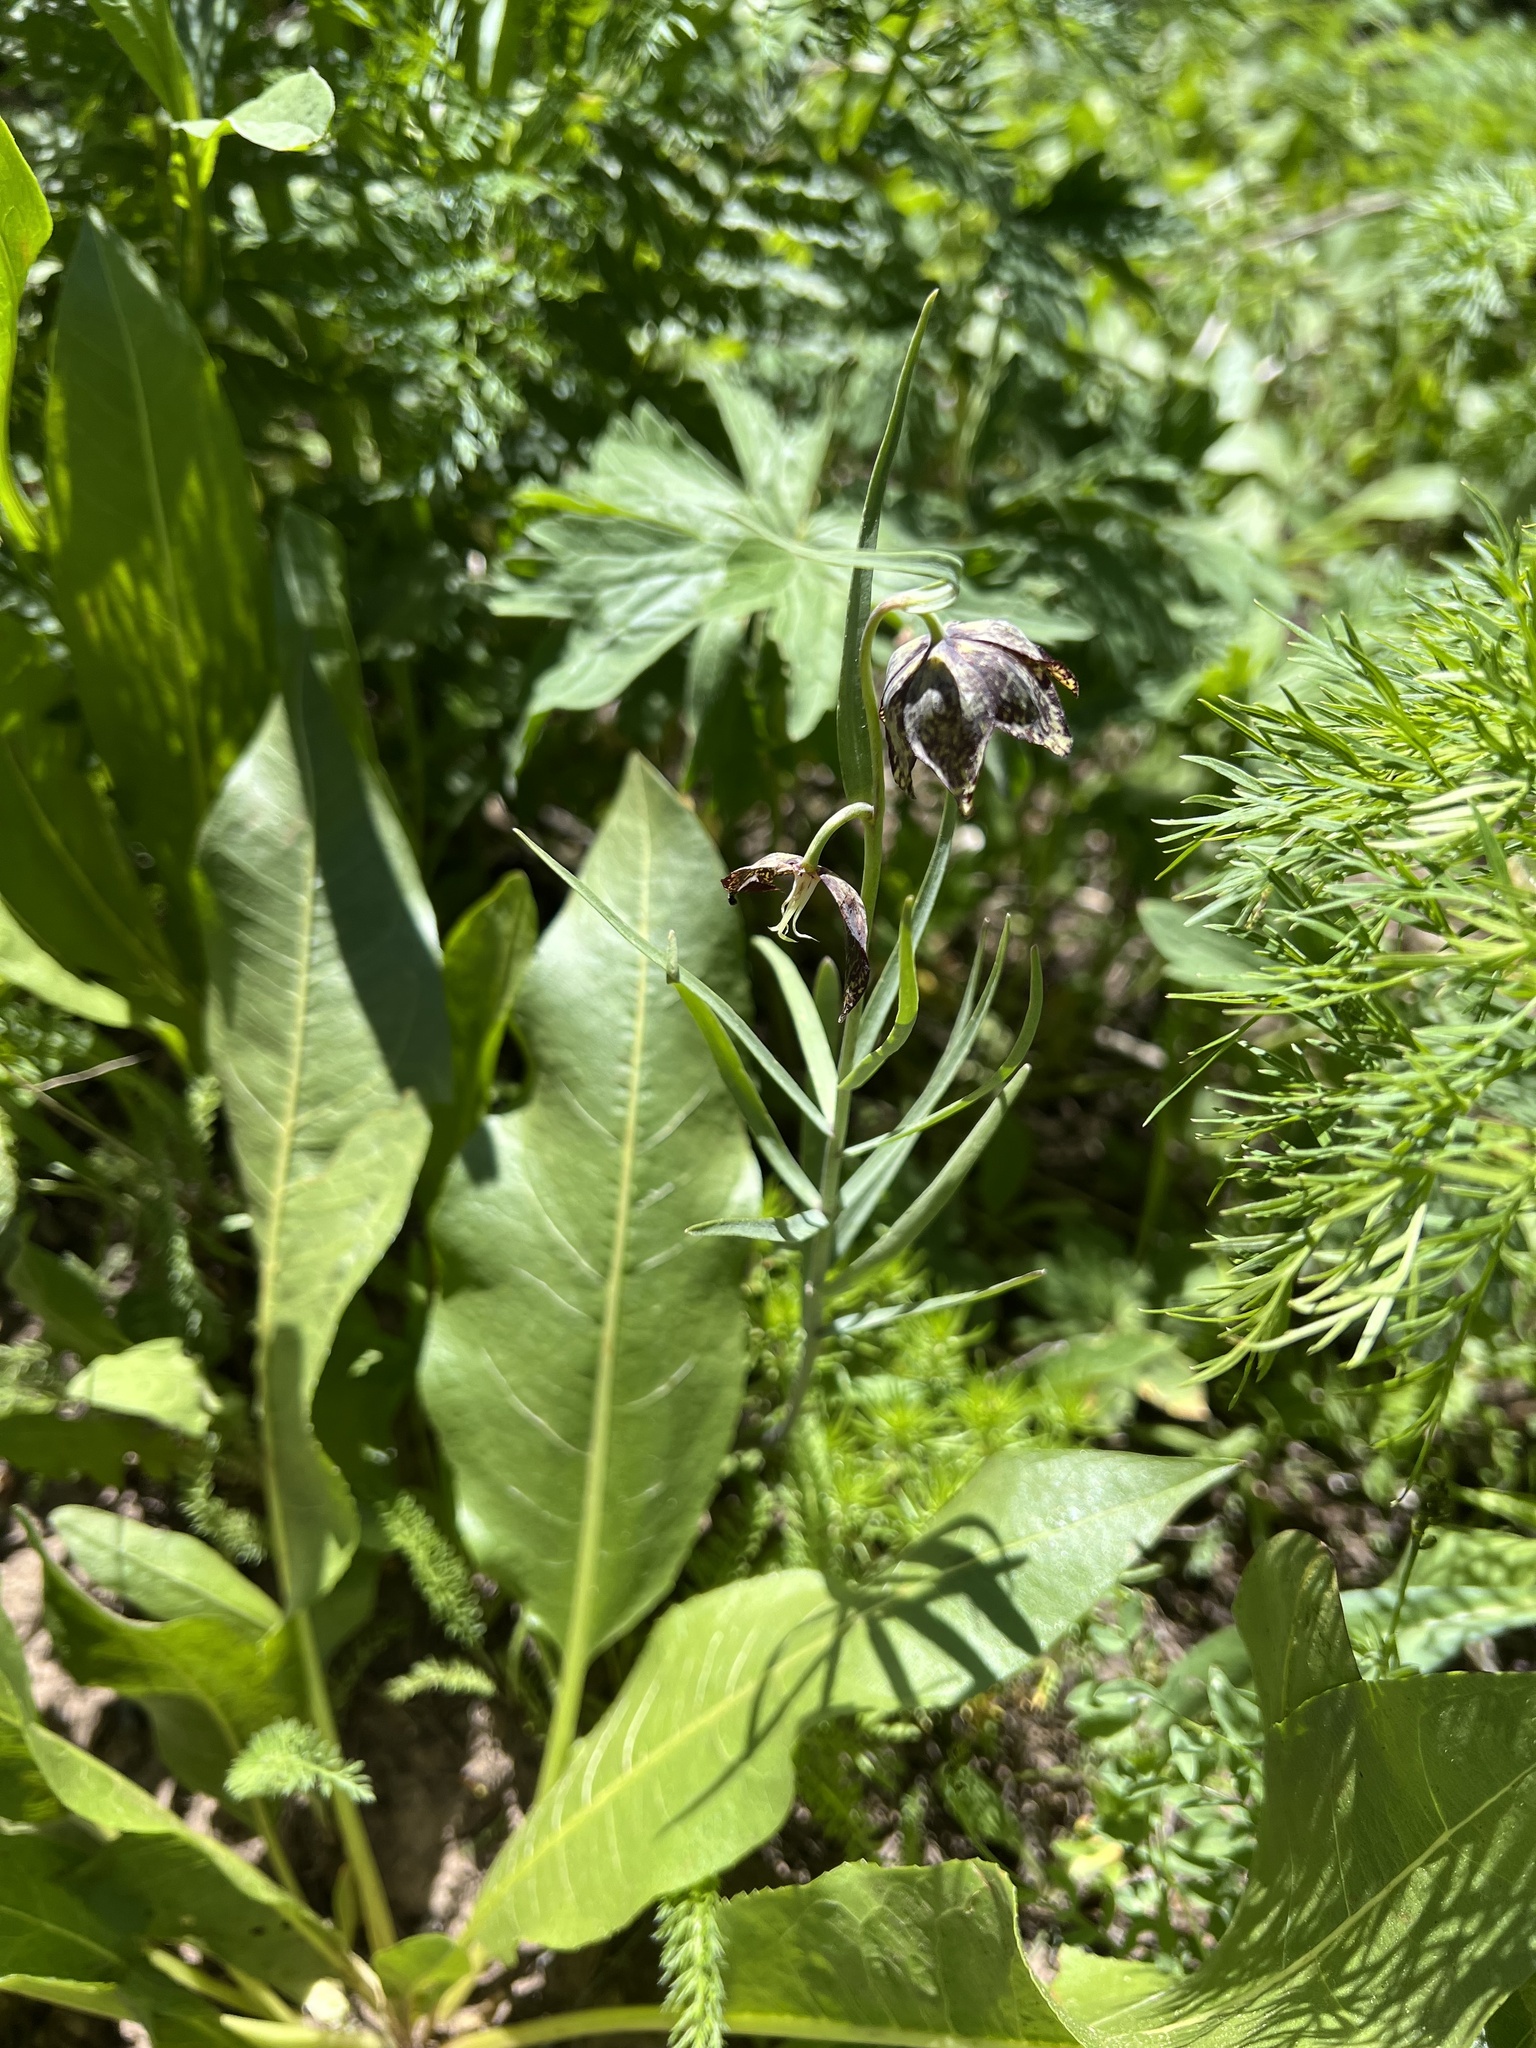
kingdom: Plantae
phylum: Tracheophyta
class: Liliopsida
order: Liliales
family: Liliaceae
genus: Fritillaria
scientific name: Fritillaria atropurpurea
